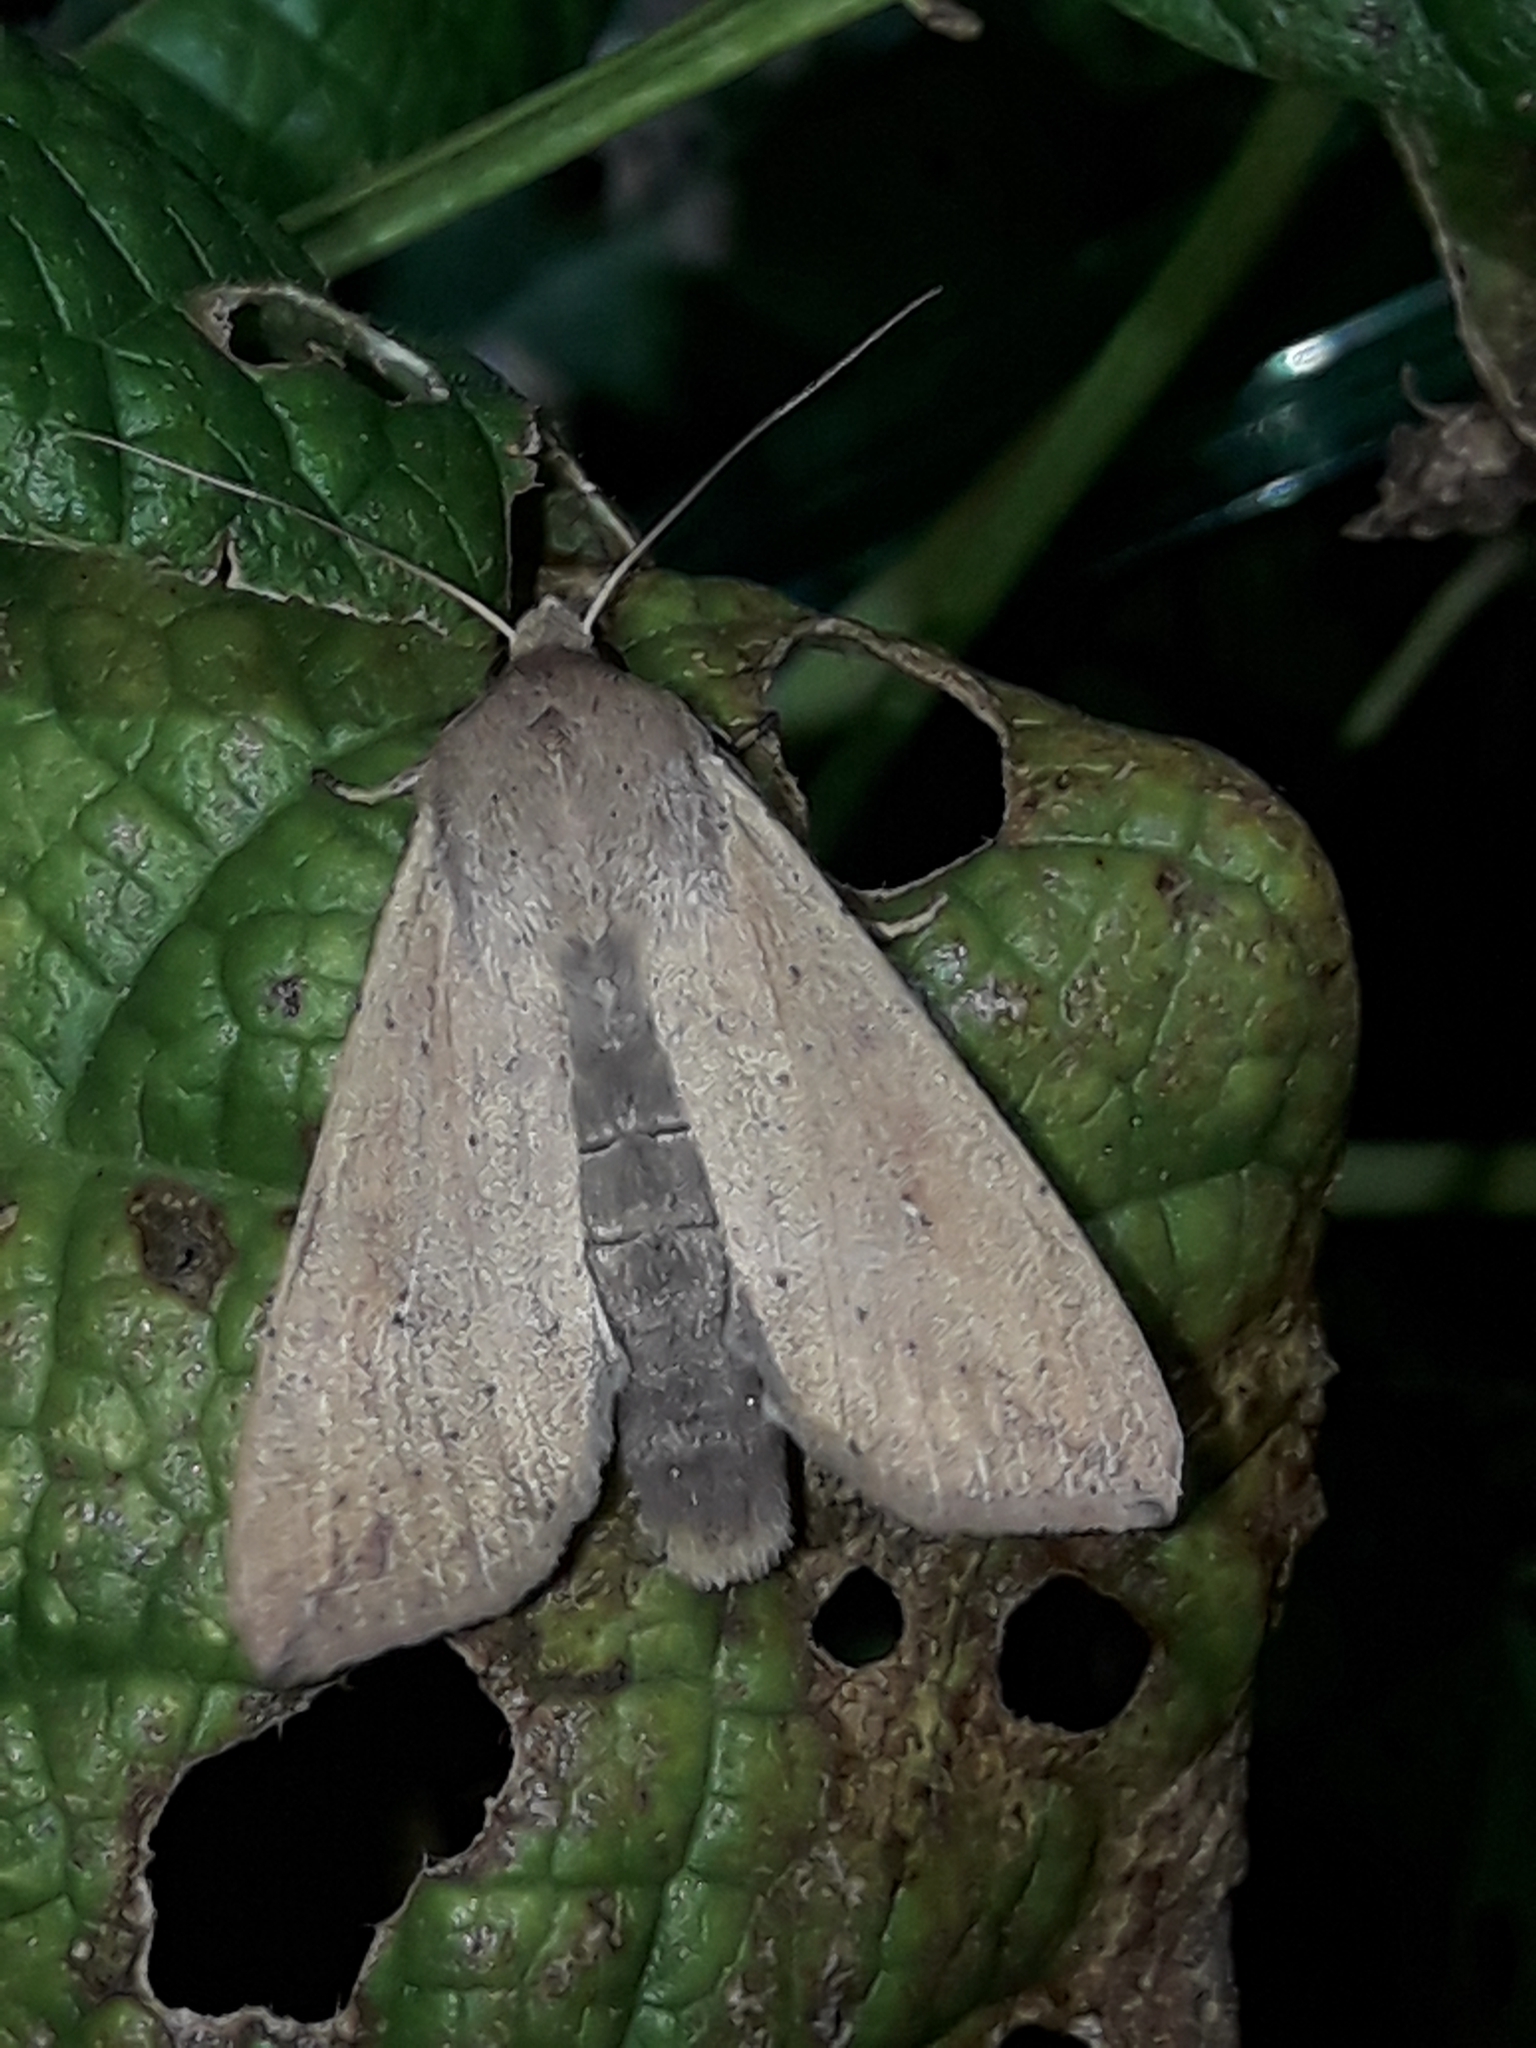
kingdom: Animalia
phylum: Arthropoda
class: Insecta
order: Lepidoptera
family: Noctuidae
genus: Mythimna
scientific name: Mythimna separata
